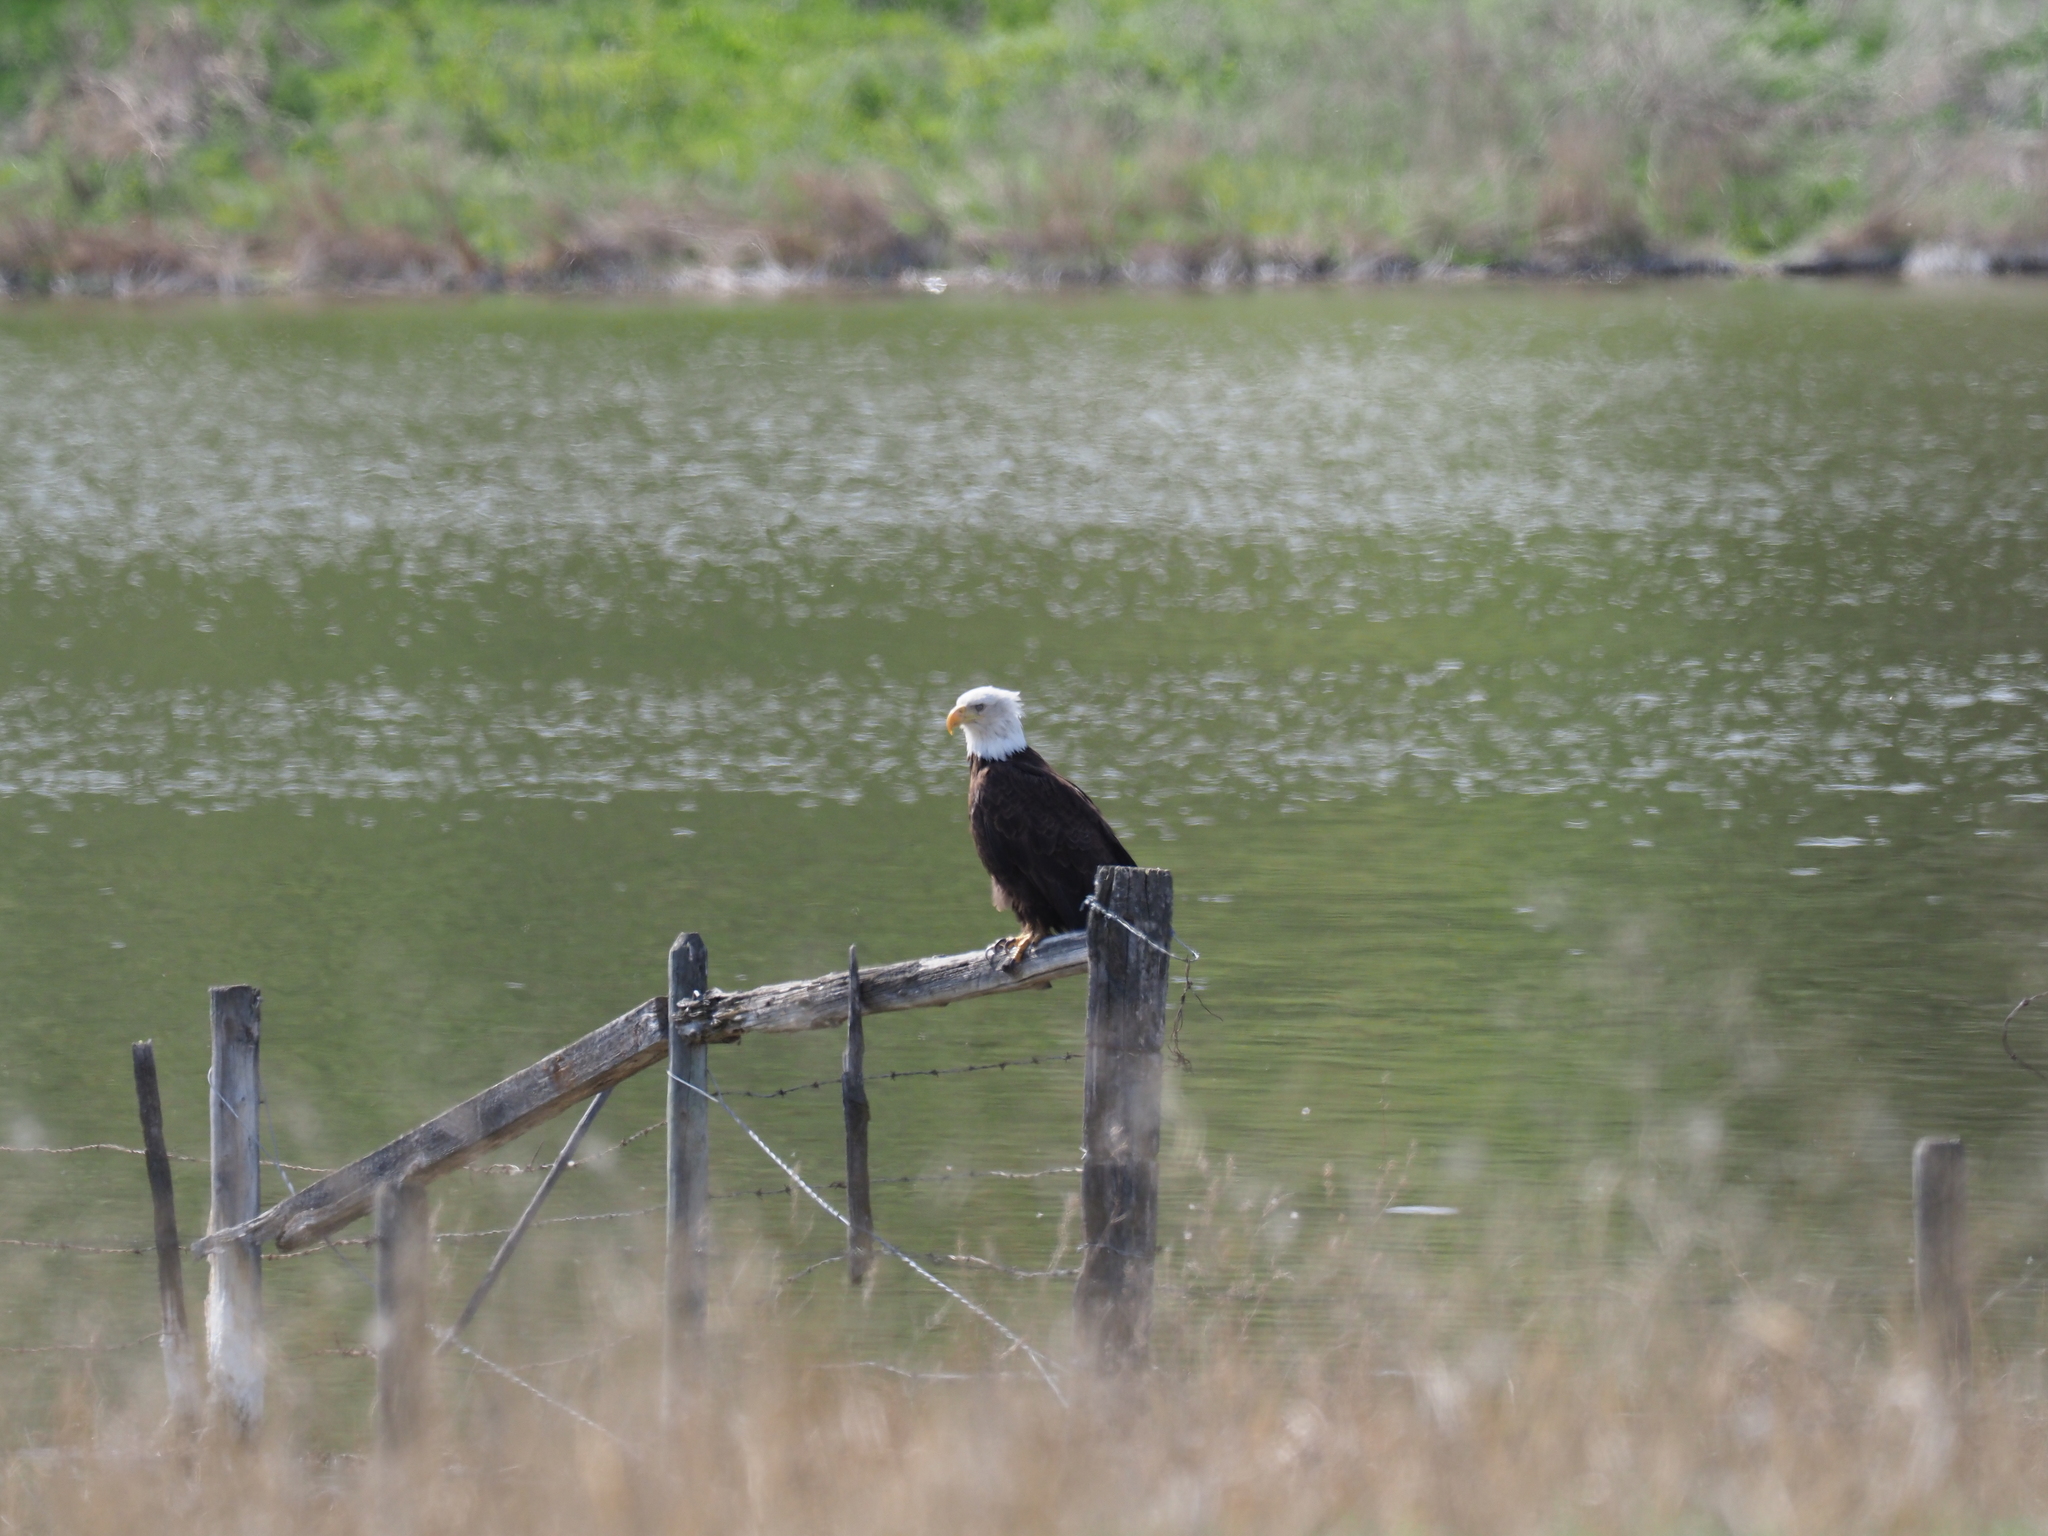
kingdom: Animalia
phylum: Chordata
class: Aves
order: Accipitriformes
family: Accipitridae
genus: Haliaeetus
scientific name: Haliaeetus leucocephalus
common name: Bald eagle
